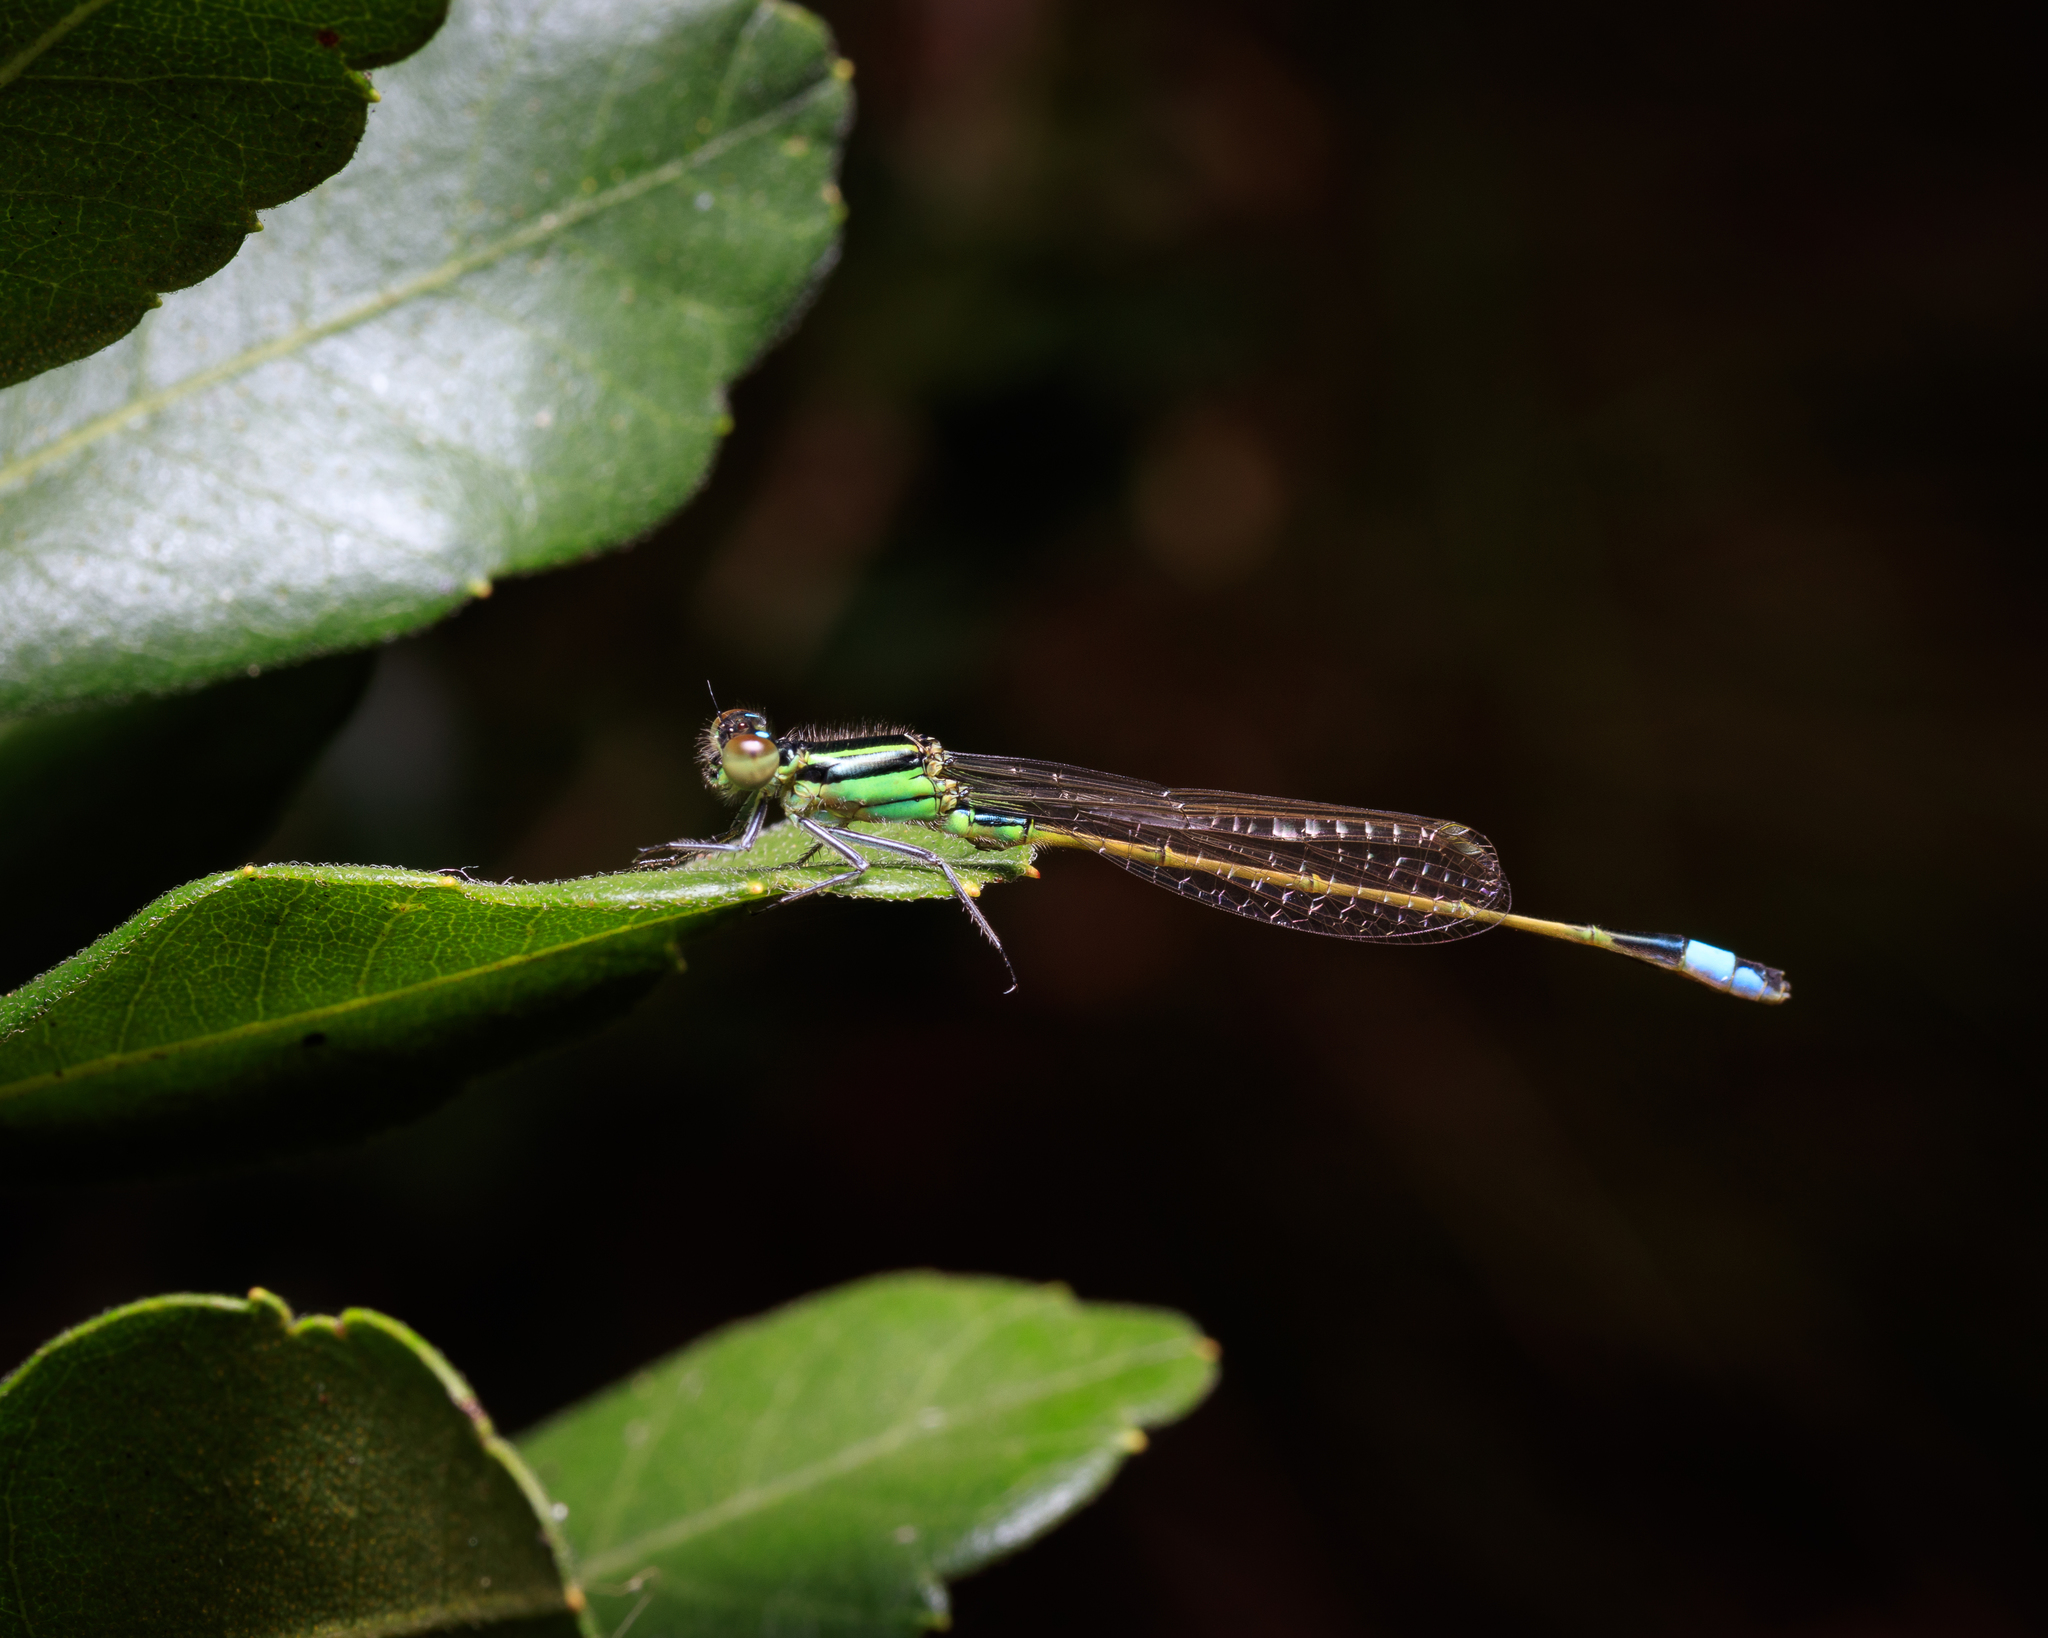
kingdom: Animalia
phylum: Arthropoda
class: Insecta
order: Odonata
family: Coenagrionidae
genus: Ischnura
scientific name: Ischnura ramburii
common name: Rambur's forktail
